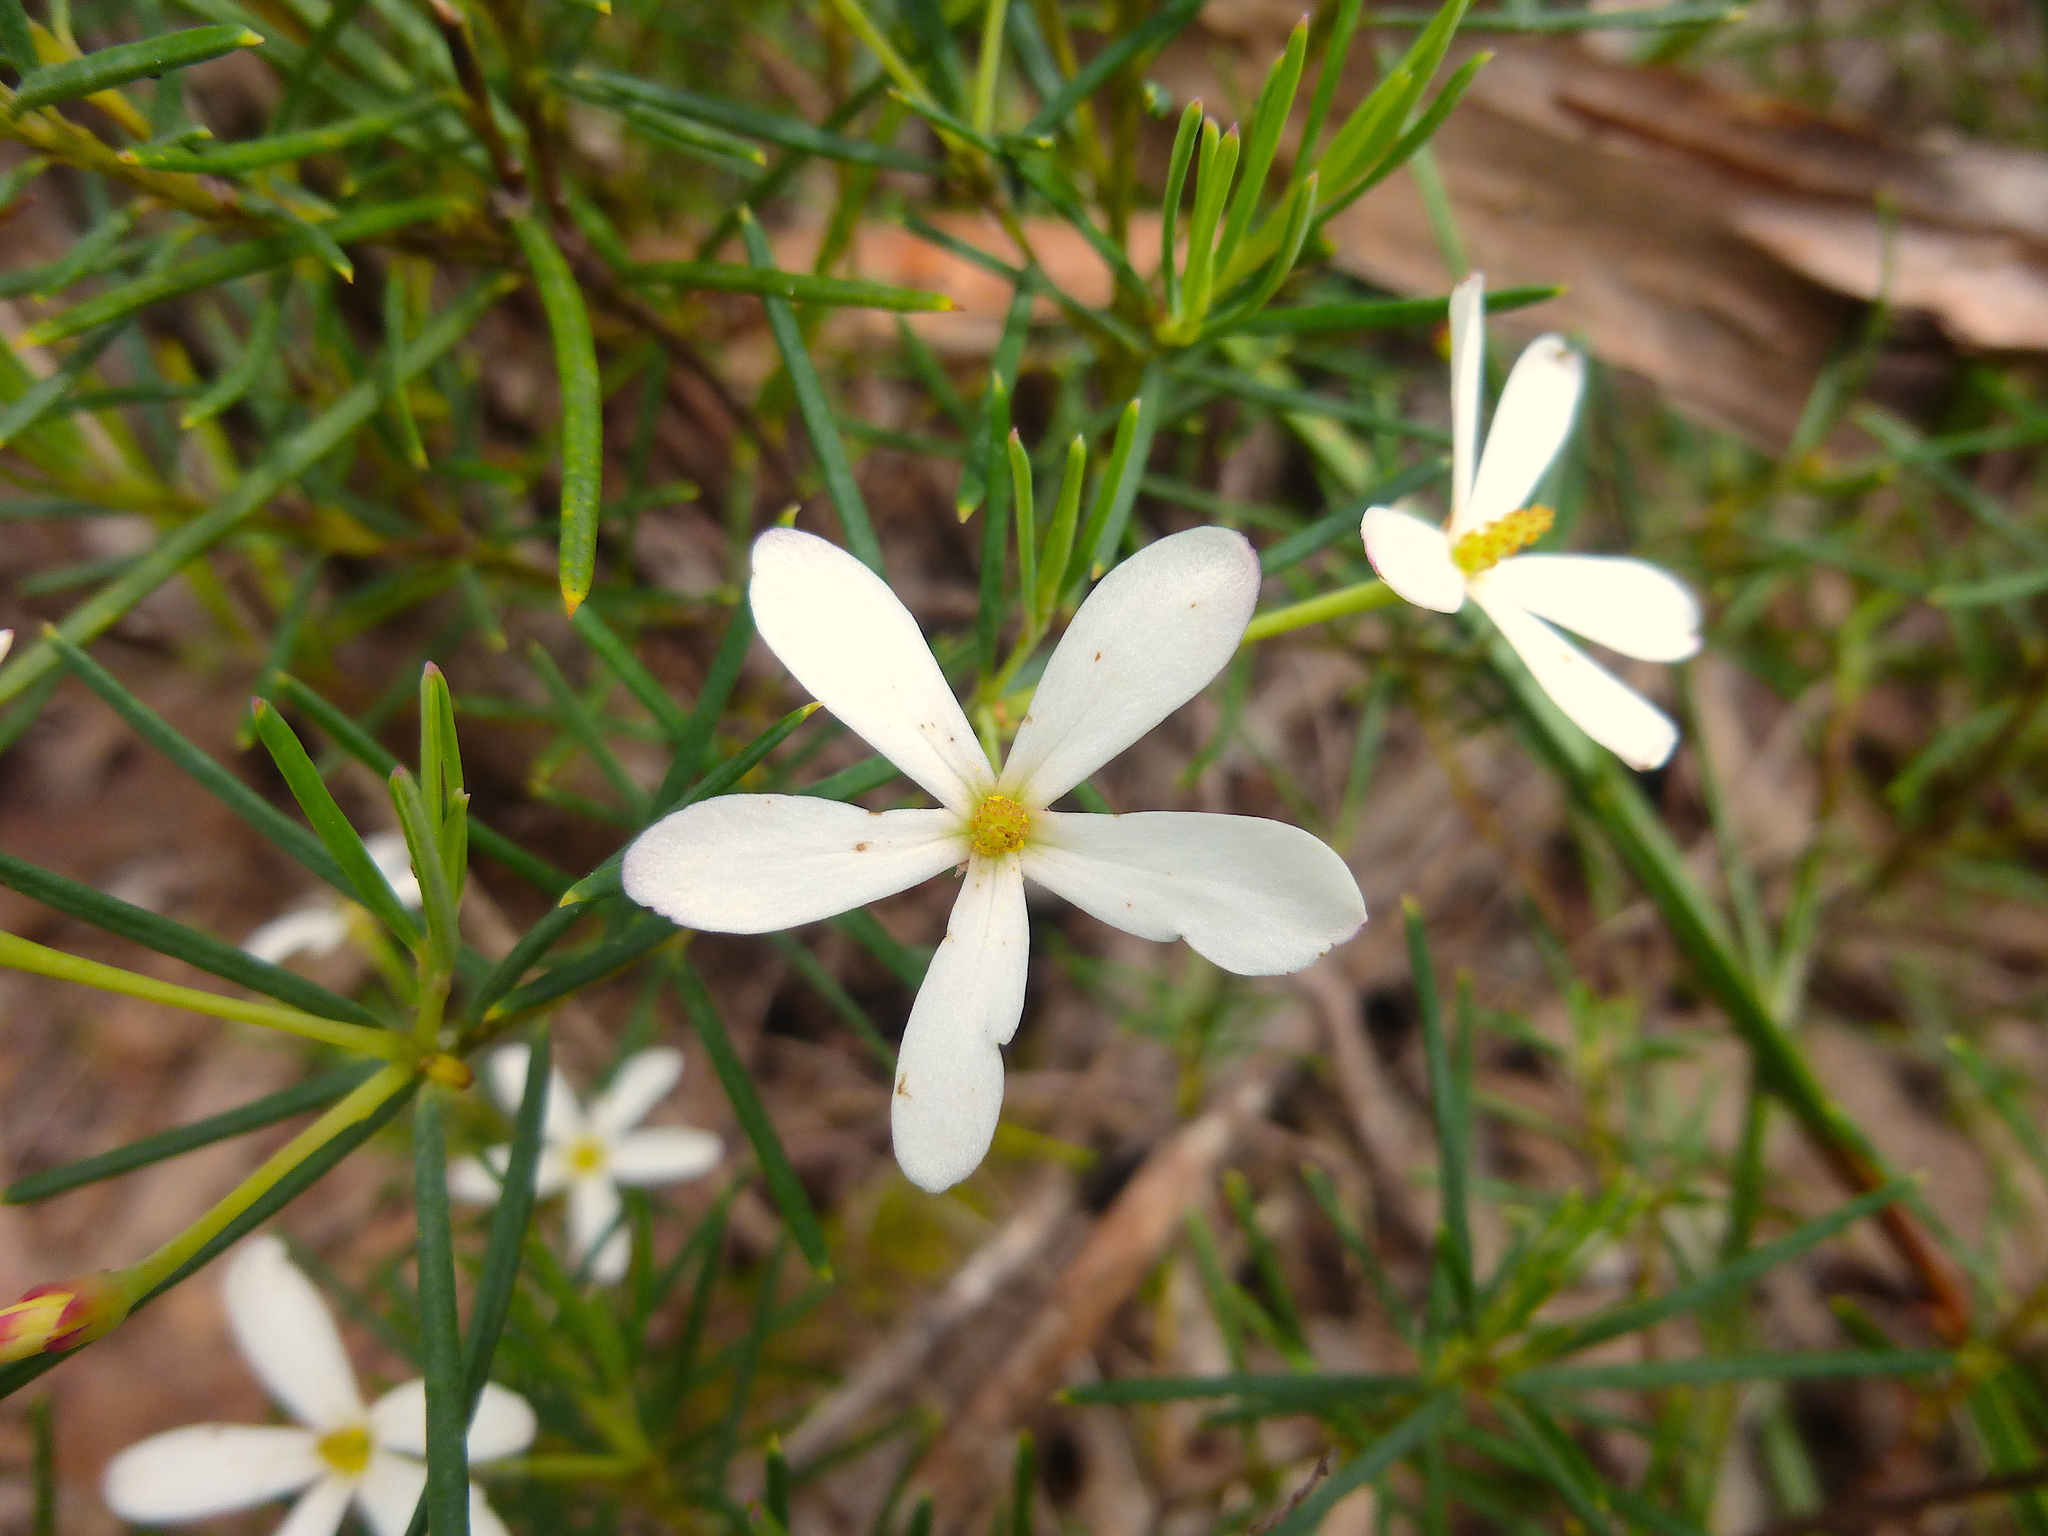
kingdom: Plantae
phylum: Tracheophyta
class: Magnoliopsida
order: Malpighiales
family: Euphorbiaceae
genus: Ricinocarpos
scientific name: Ricinocarpos pinifolius
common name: Weddingbush
